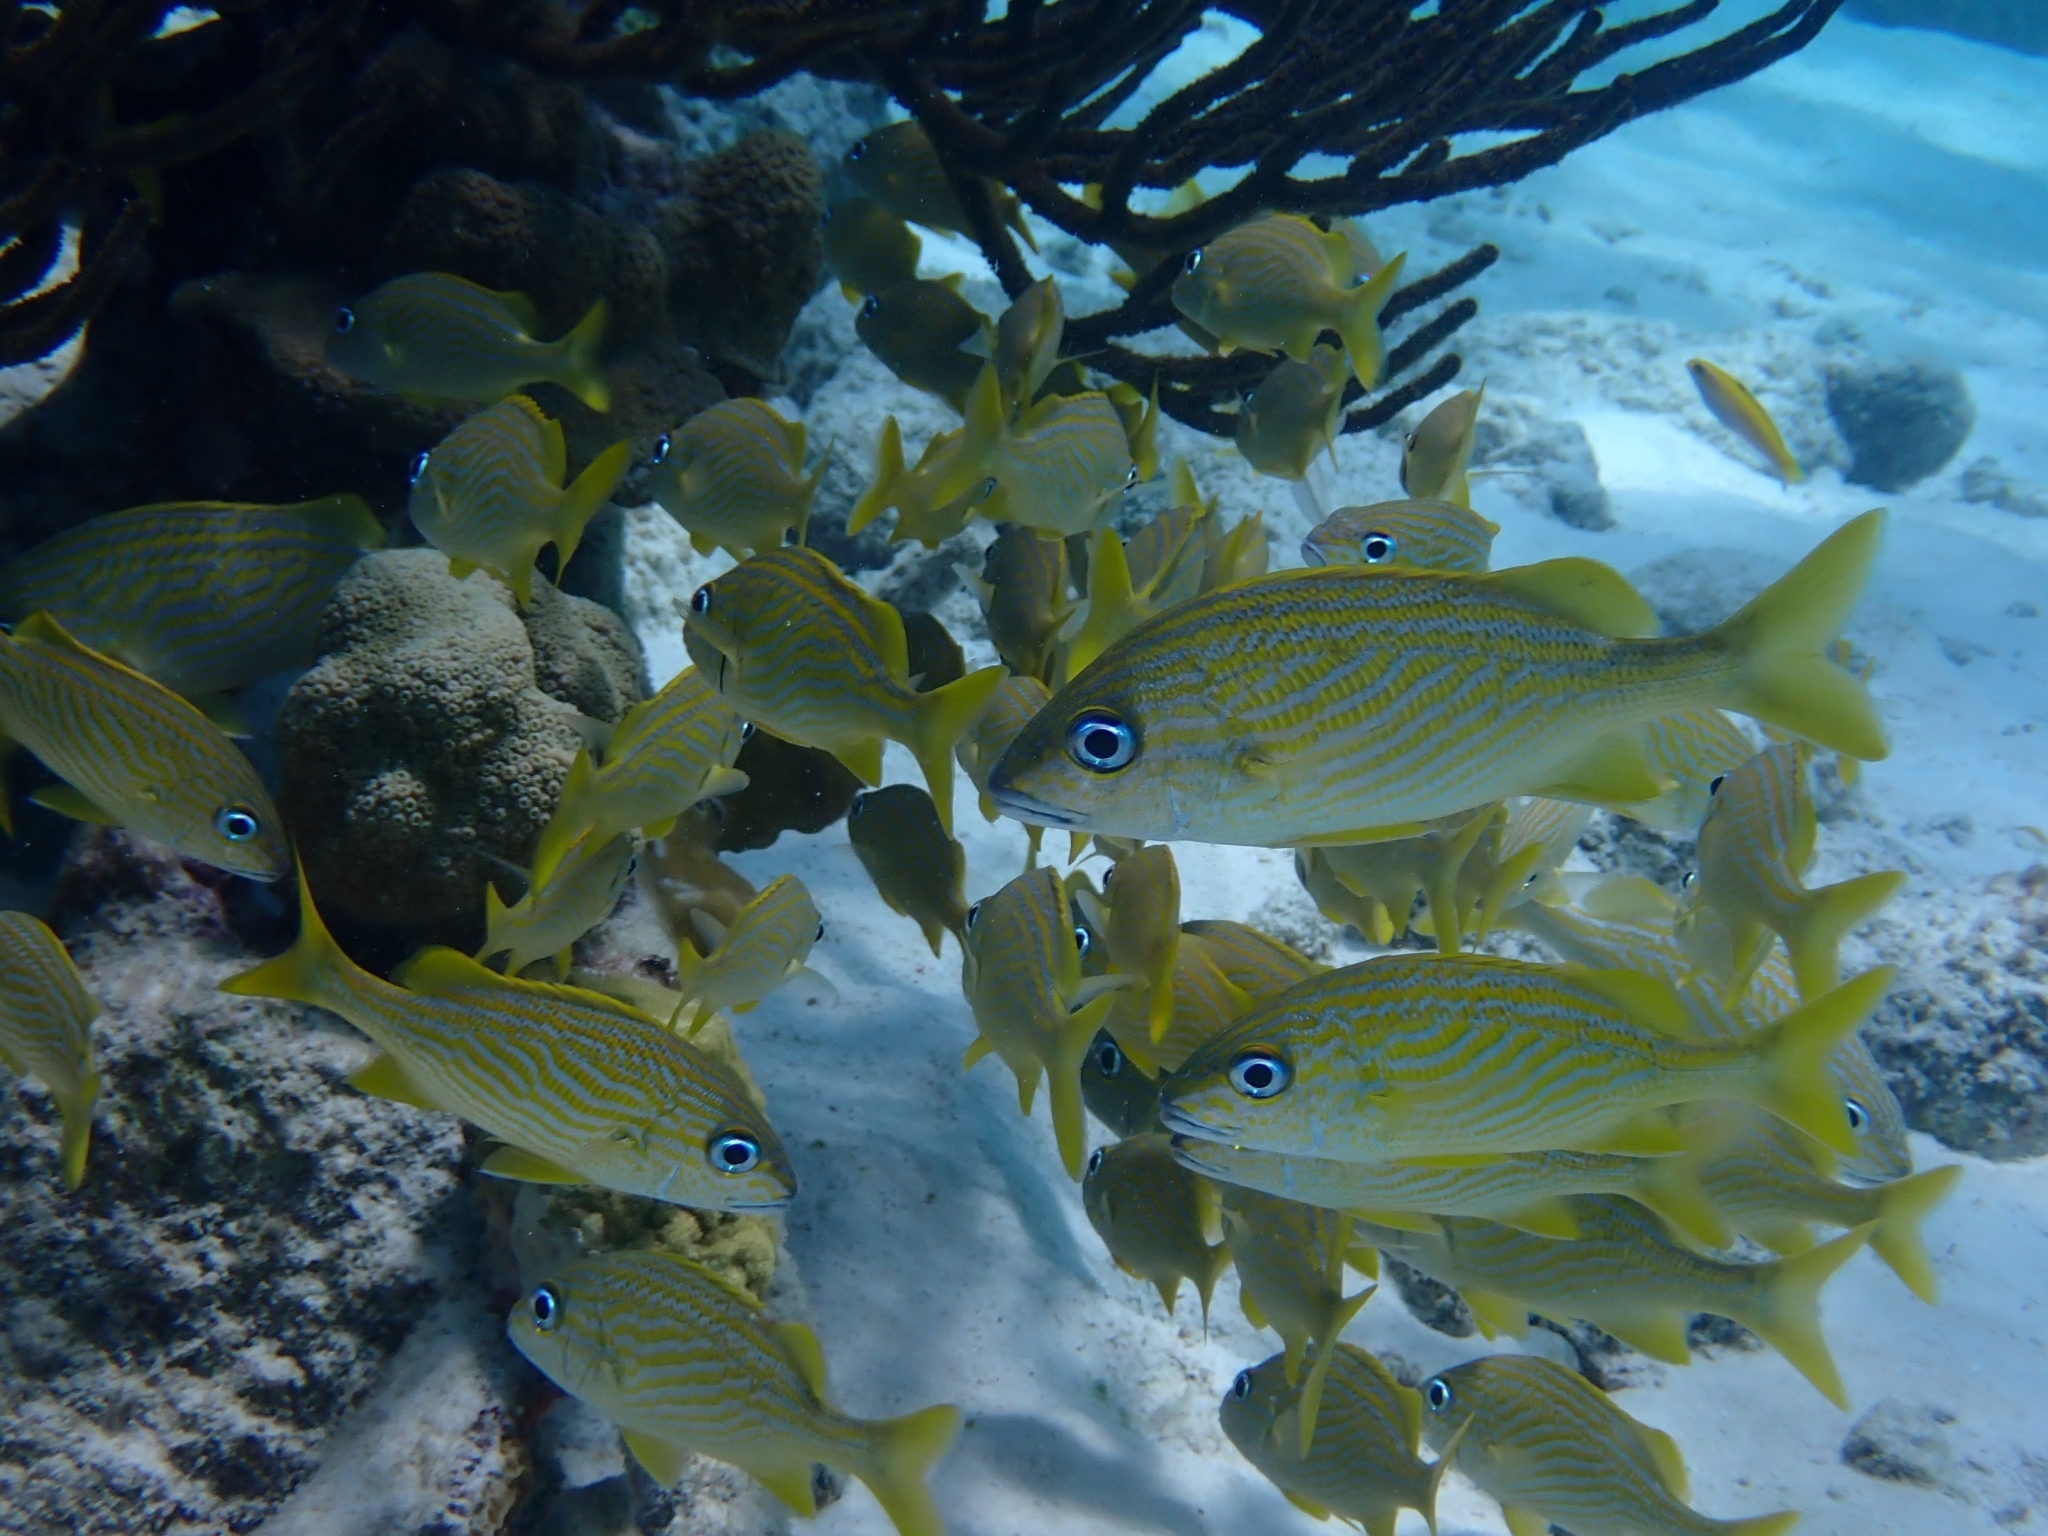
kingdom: Animalia
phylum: Chordata
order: Perciformes
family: Haemulidae
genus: Haemulon
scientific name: Haemulon flavolineatum
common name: French grunt
